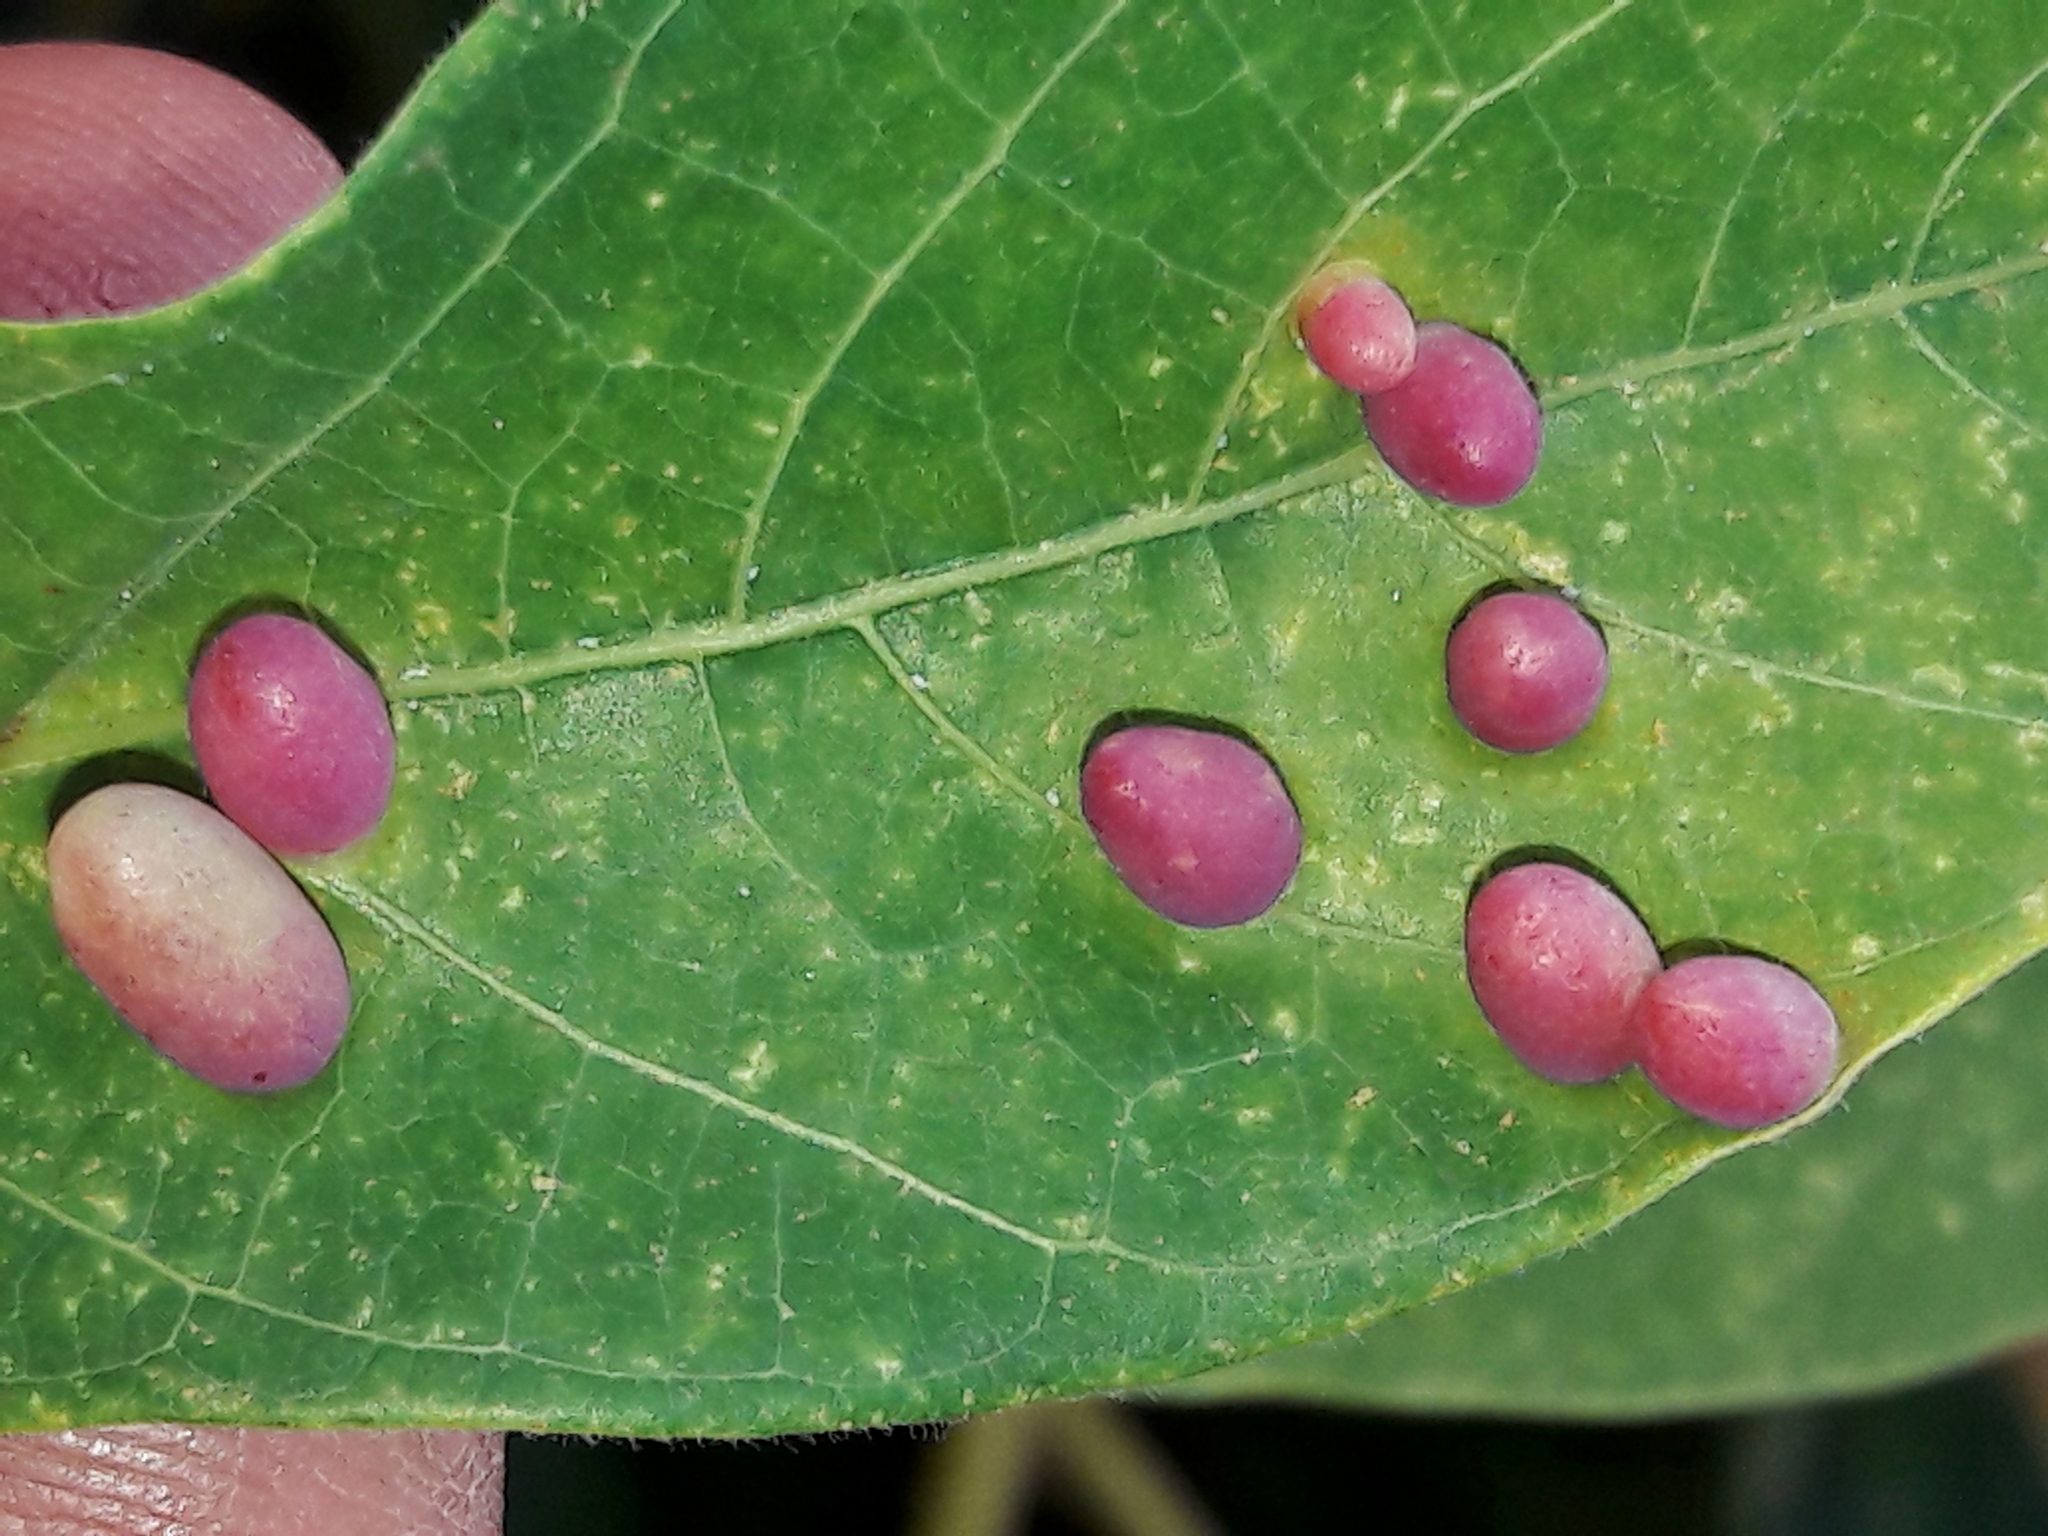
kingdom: Animalia
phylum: Arthropoda
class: Insecta
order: Diptera
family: Cecidomyiidae
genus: Iatrophobia
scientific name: Iatrophobia brasiliensis
